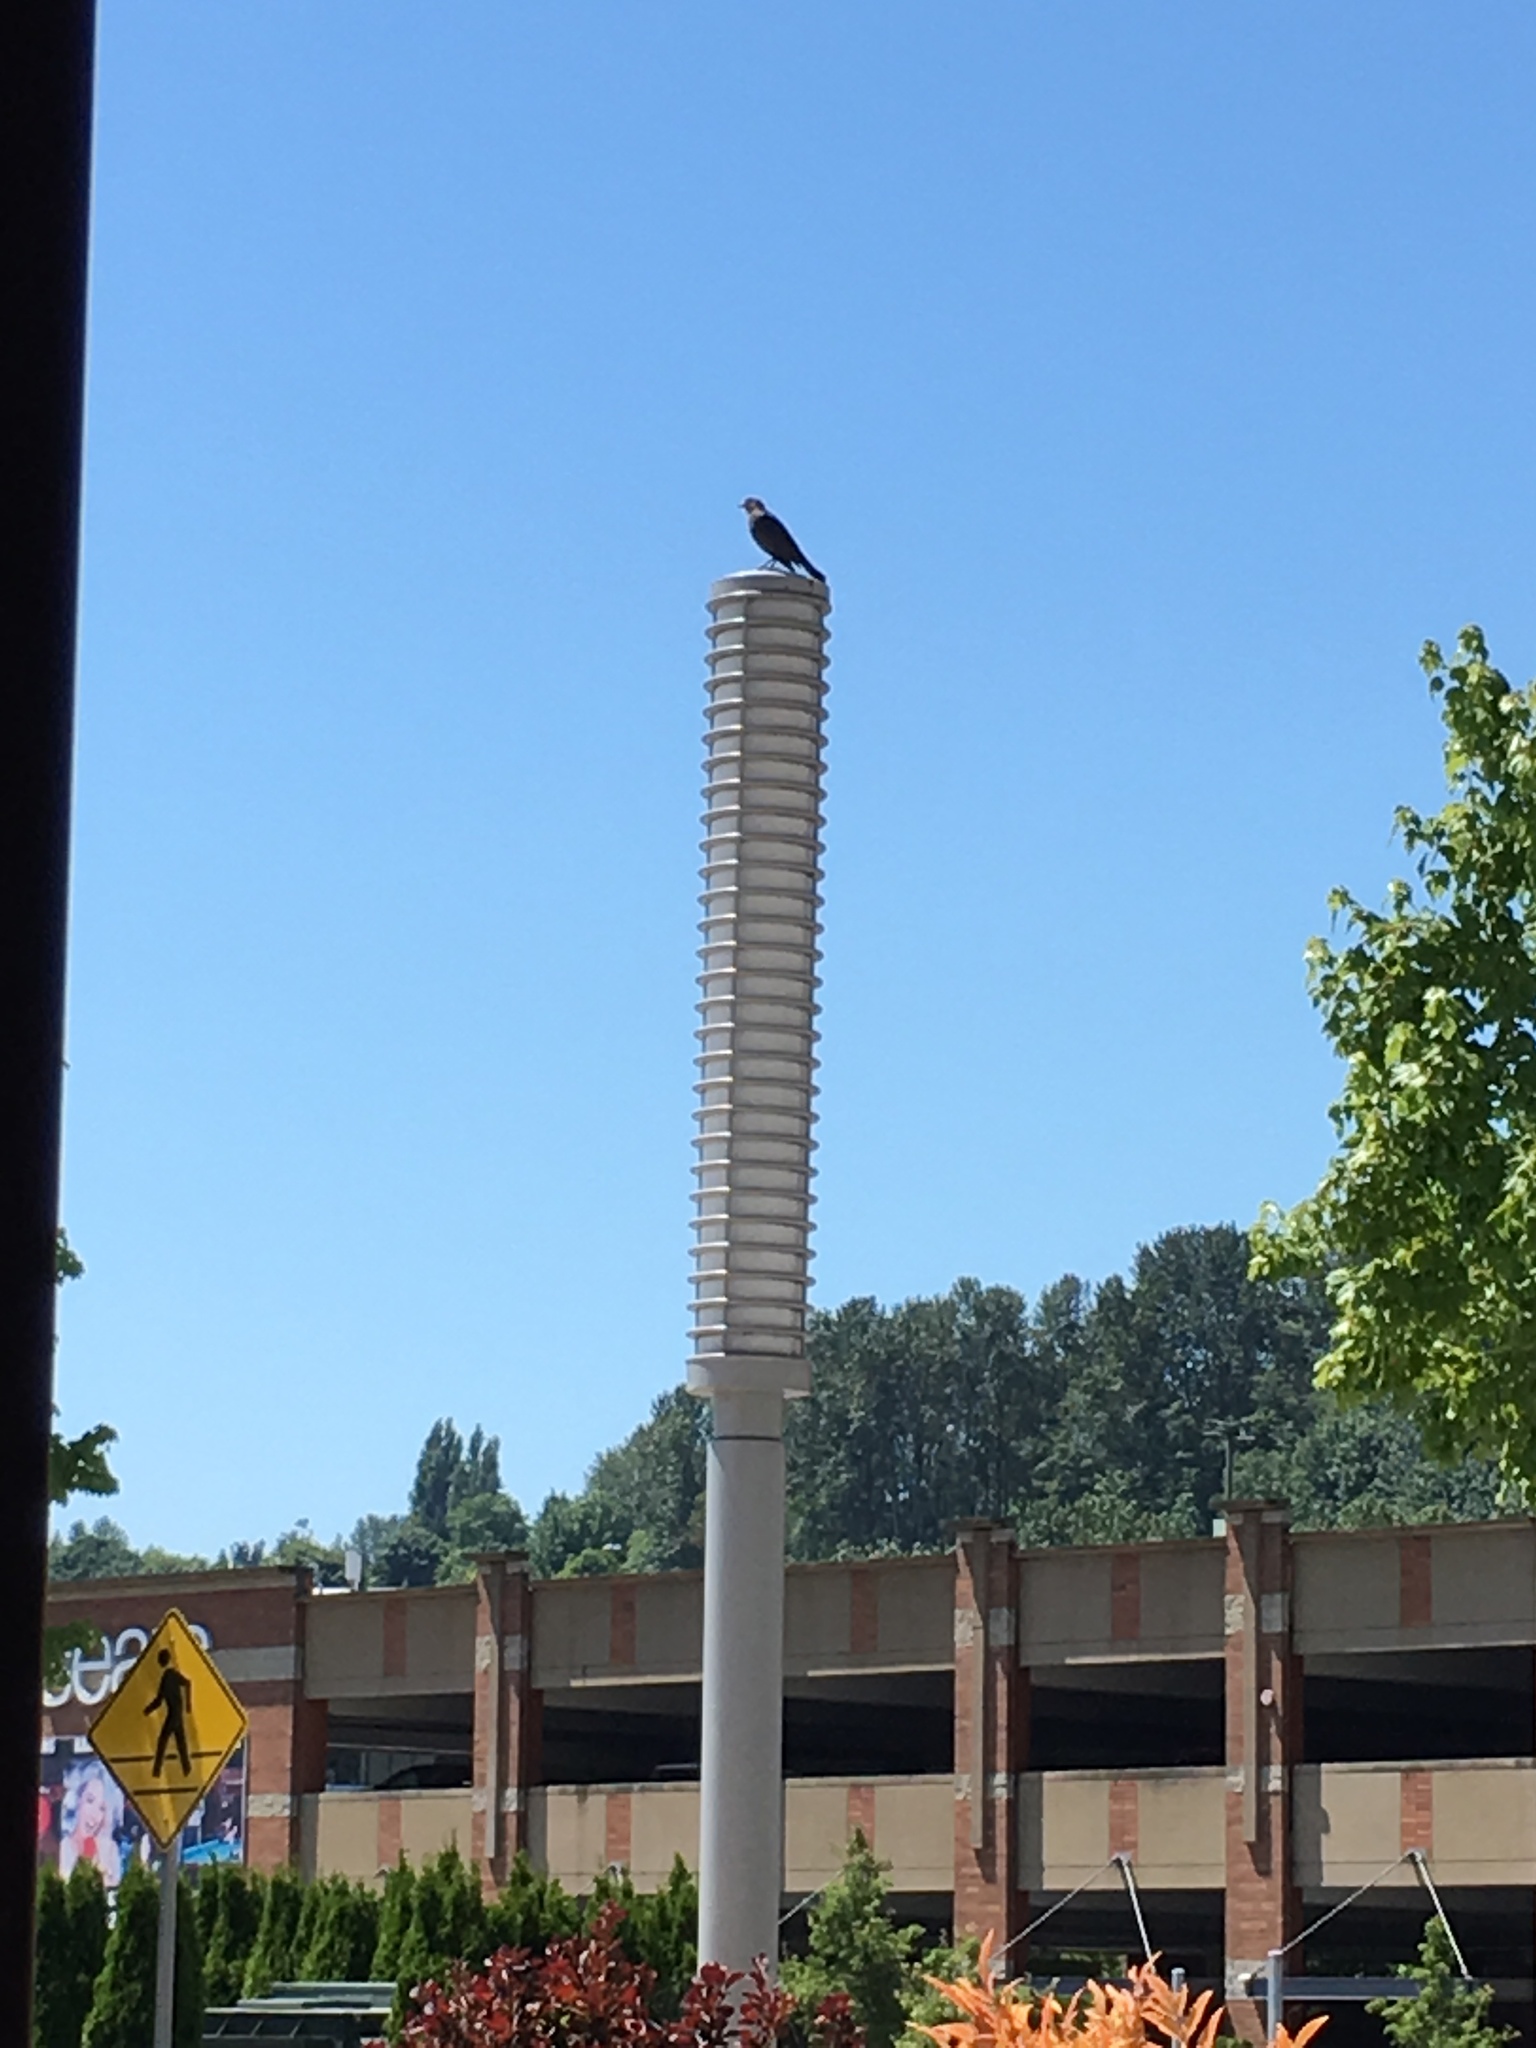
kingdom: Animalia
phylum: Chordata
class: Aves
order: Passeriformes
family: Icteridae
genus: Euphagus
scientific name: Euphagus cyanocephalus
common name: Brewer's blackbird
